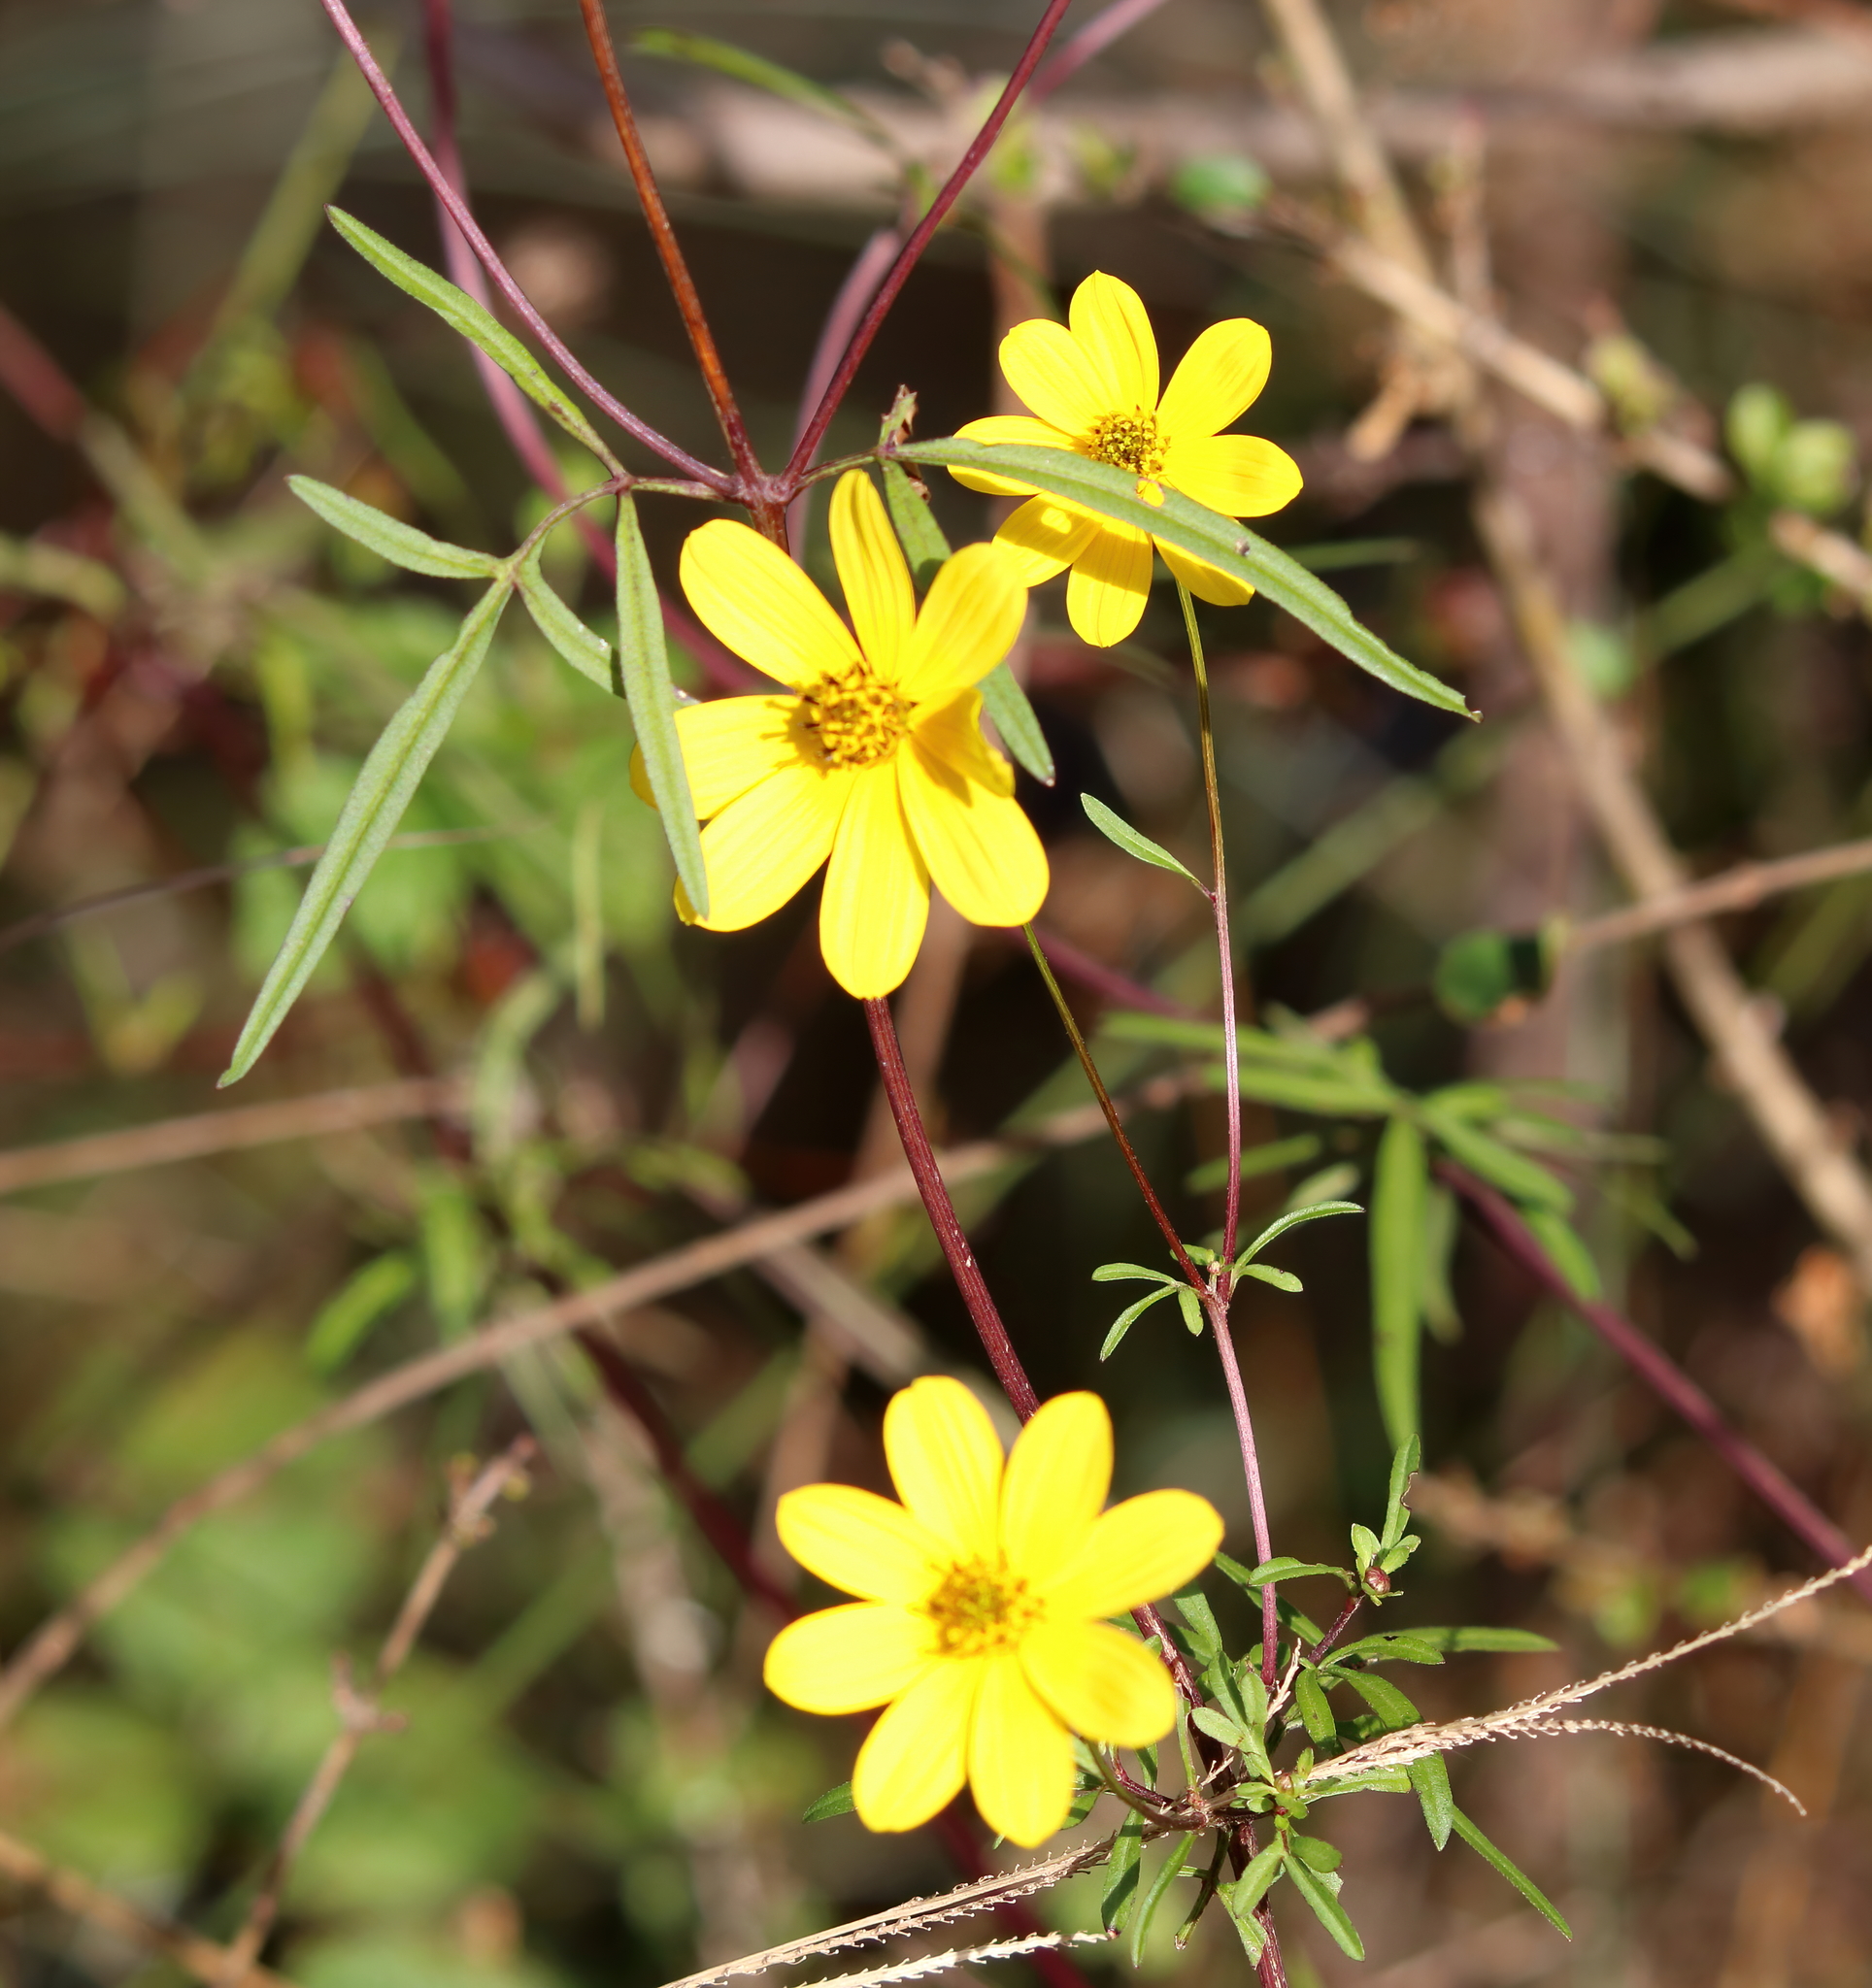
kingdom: Plantae
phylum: Tracheophyta
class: Magnoliopsida
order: Asterales
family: Asteraceae
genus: Bidens
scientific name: Bidens mitis
